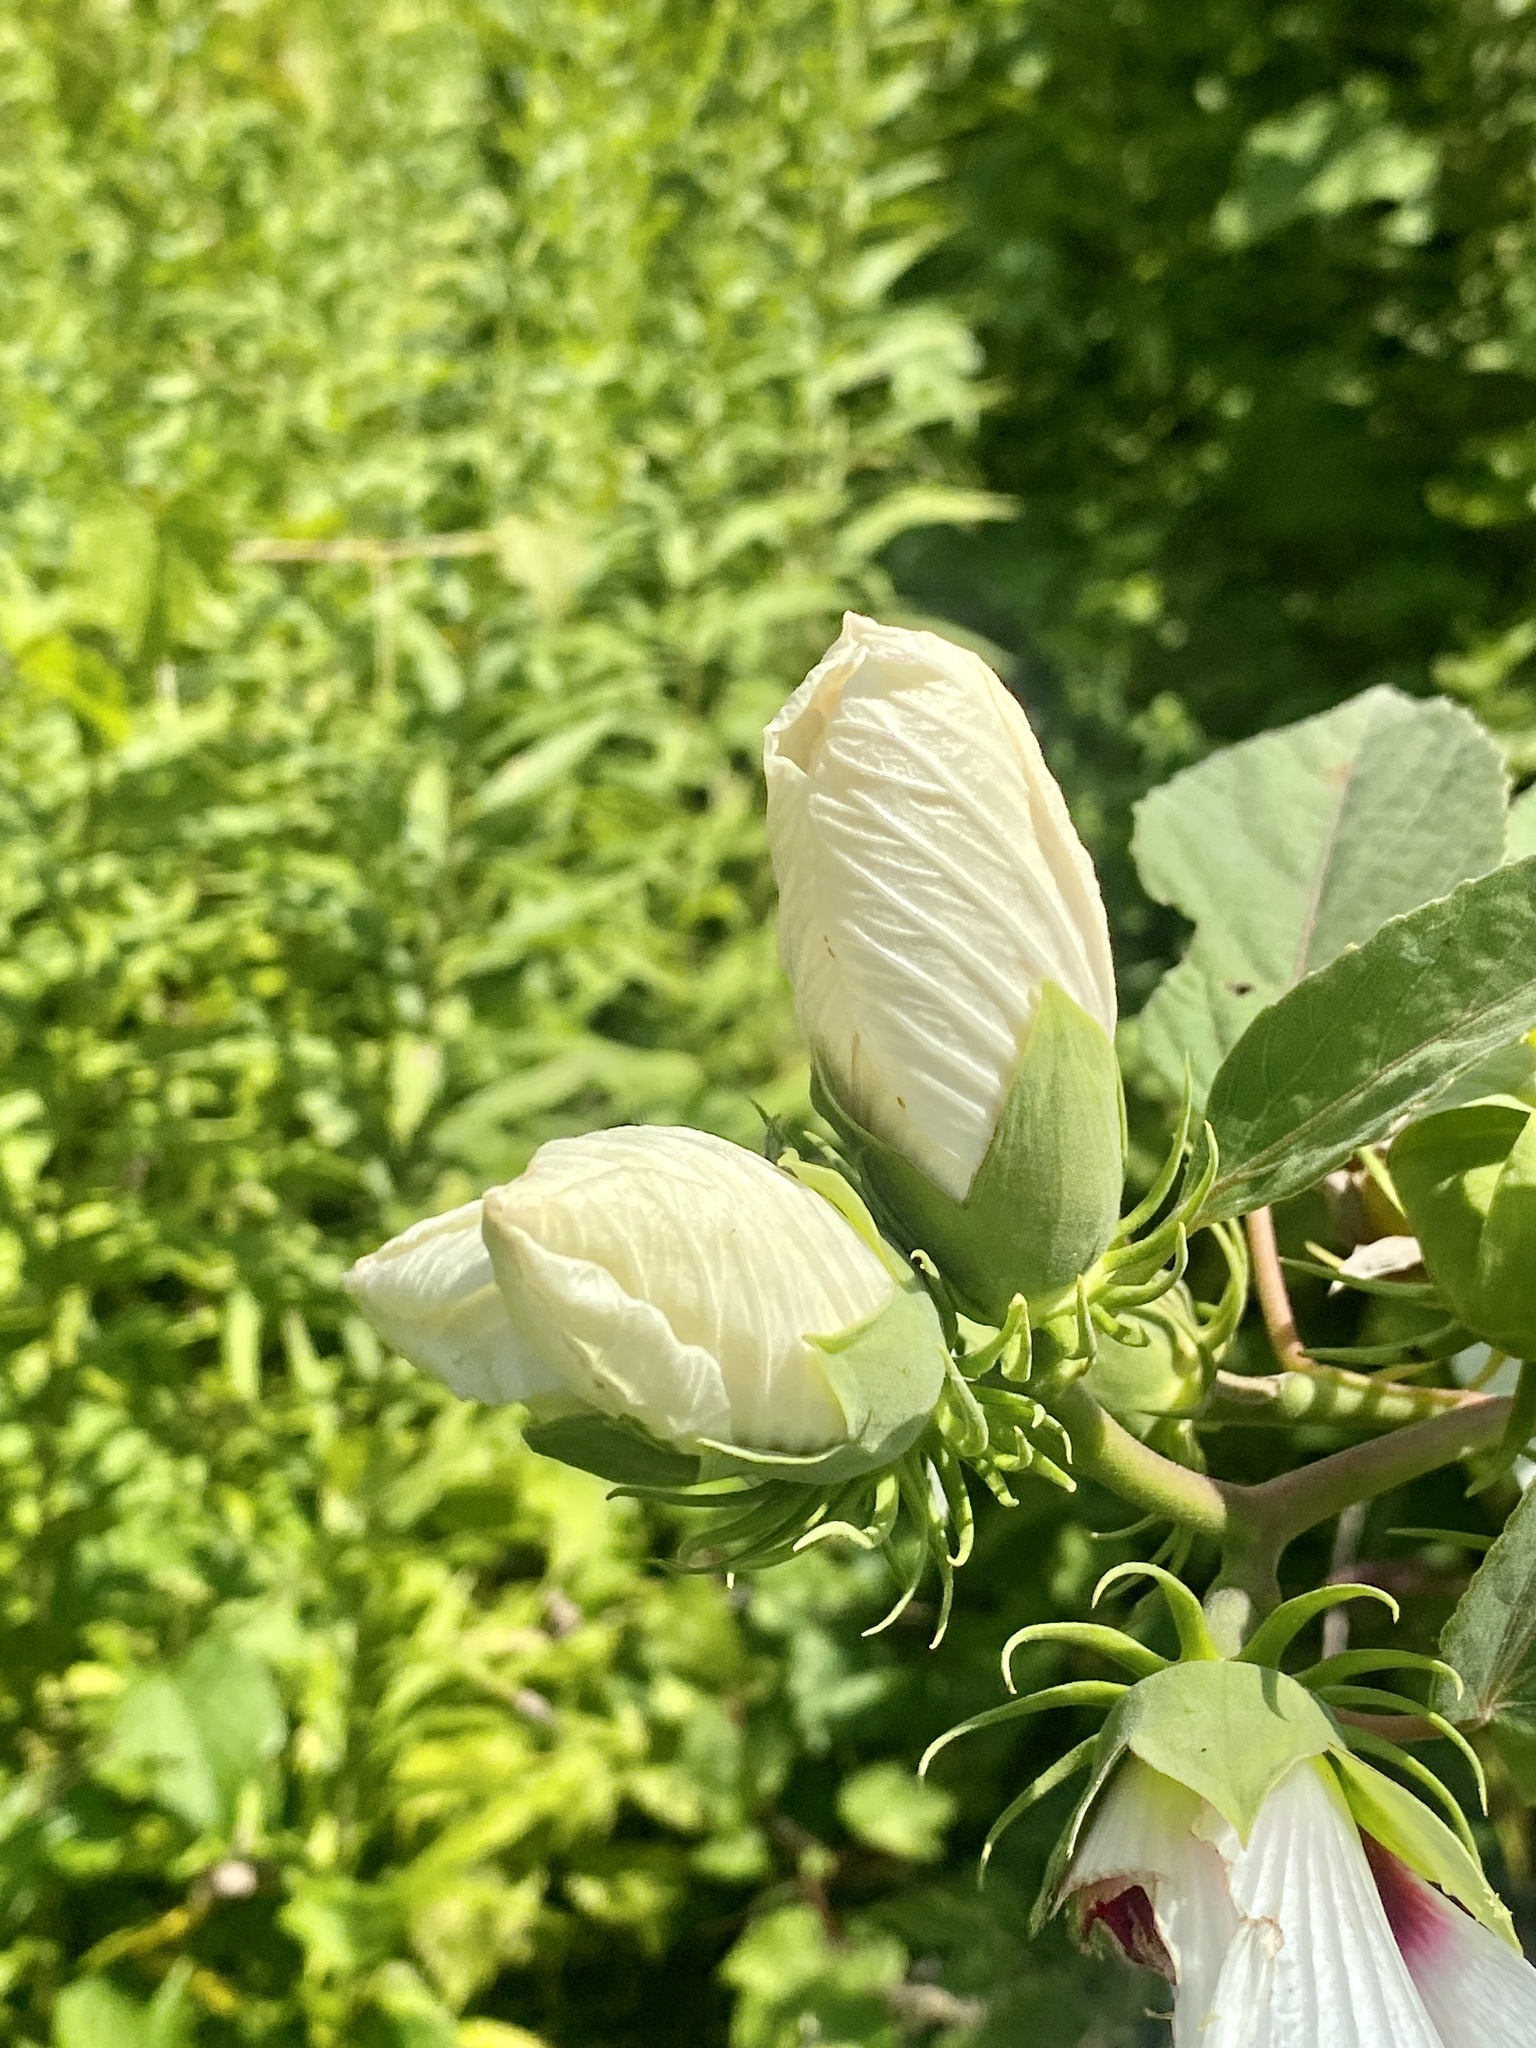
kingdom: Plantae
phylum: Tracheophyta
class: Magnoliopsida
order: Malvales
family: Malvaceae
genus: Hibiscus
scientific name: Hibiscus moscheutos
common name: Common rose-mallow
